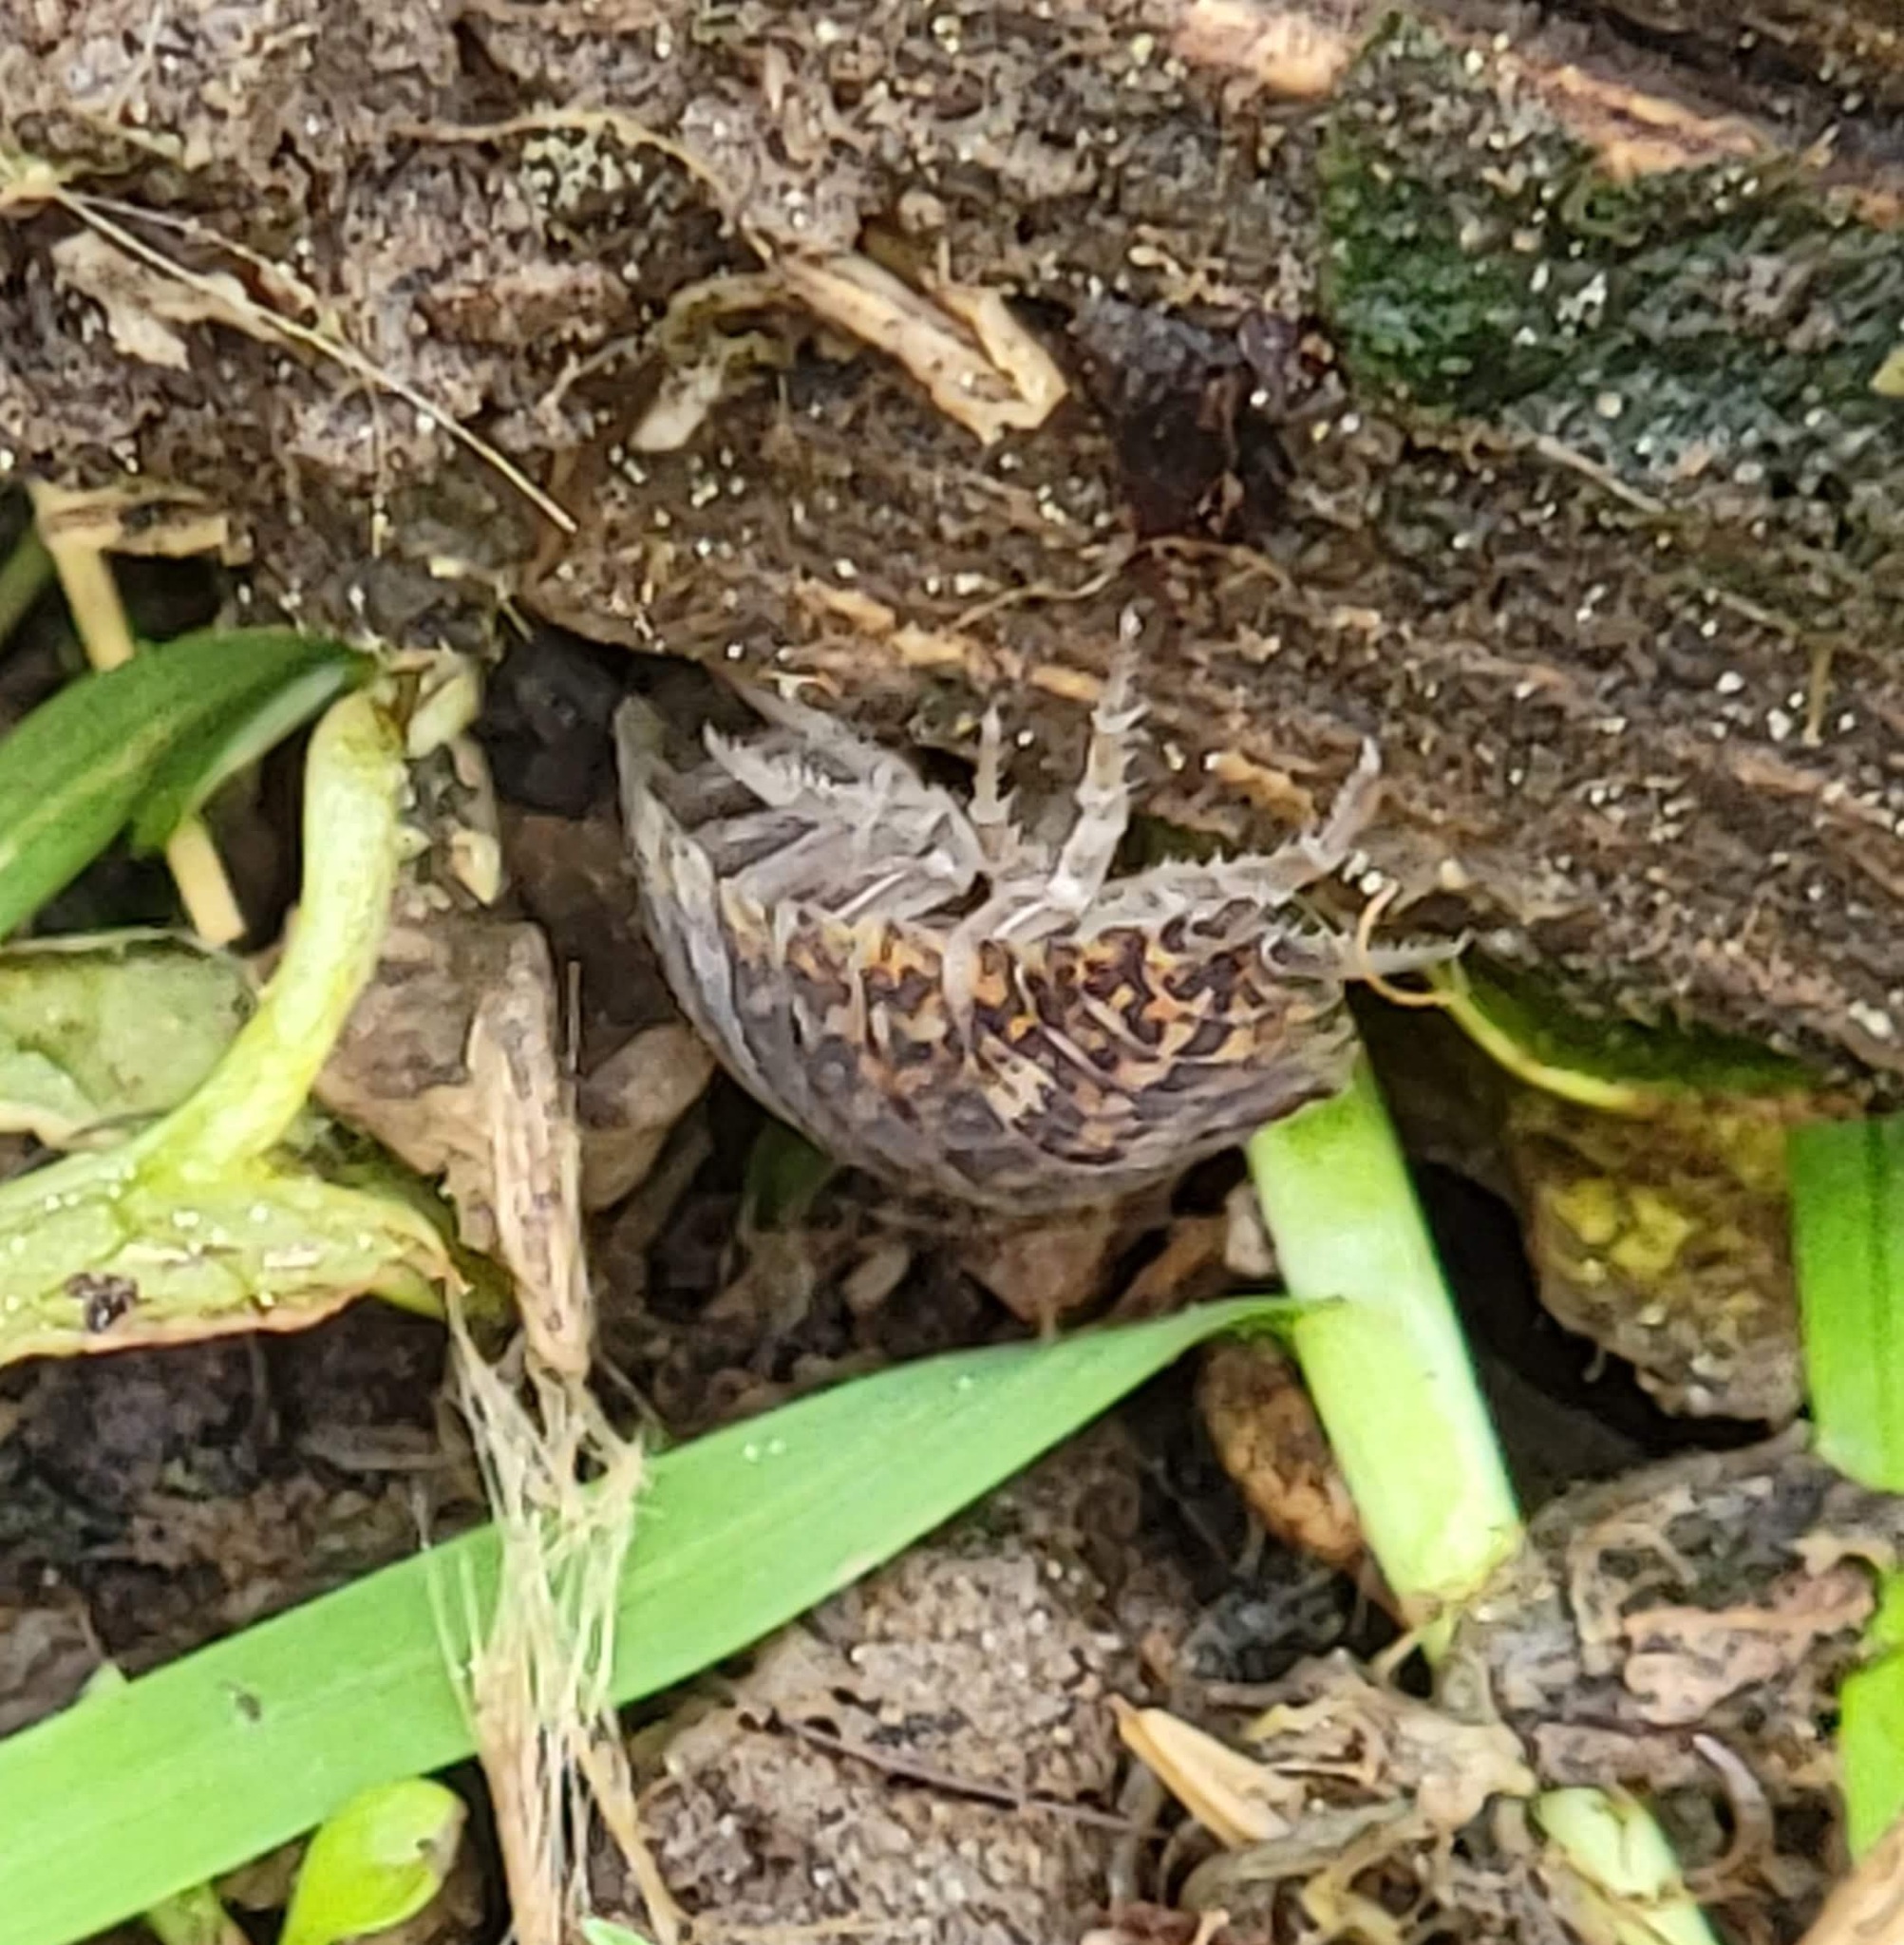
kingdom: Animalia
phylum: Arthropoda
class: Malacostraca
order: Isopoda
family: Trachelipodidae
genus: Trachelipus
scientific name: Trachelipus rathkii
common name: Isopod
